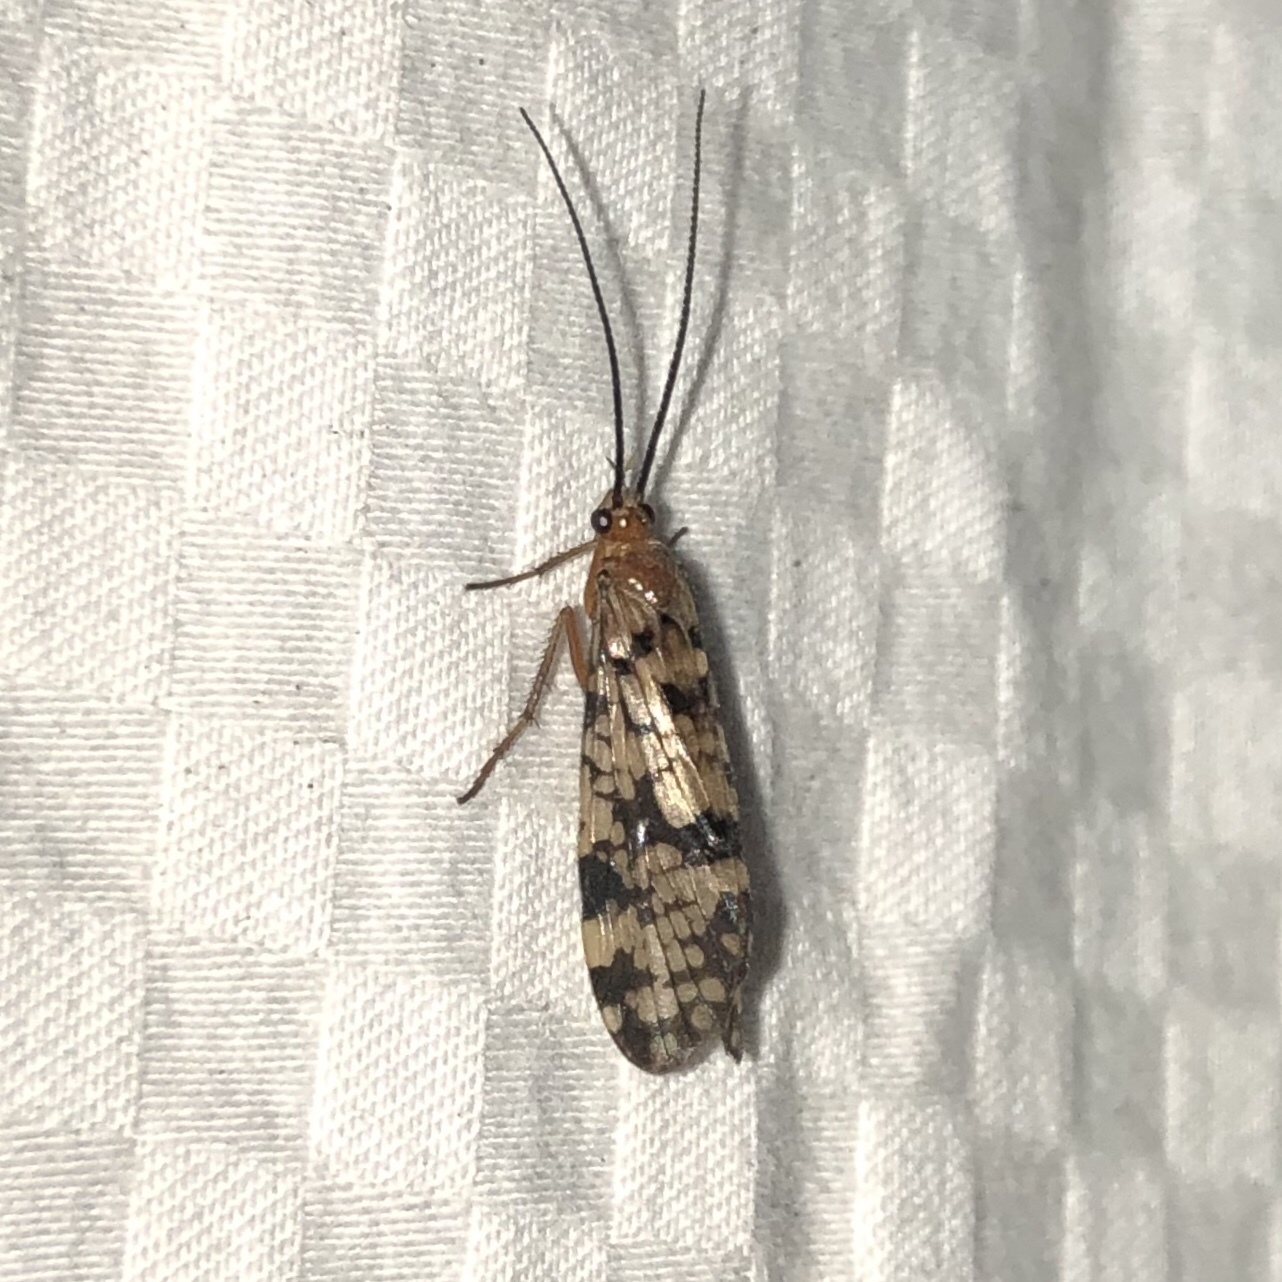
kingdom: Animalia
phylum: Arthropoda
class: Insecta
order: Trichoptera
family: Phryganeidae
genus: Banksiola
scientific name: Banksiola dossuaria
